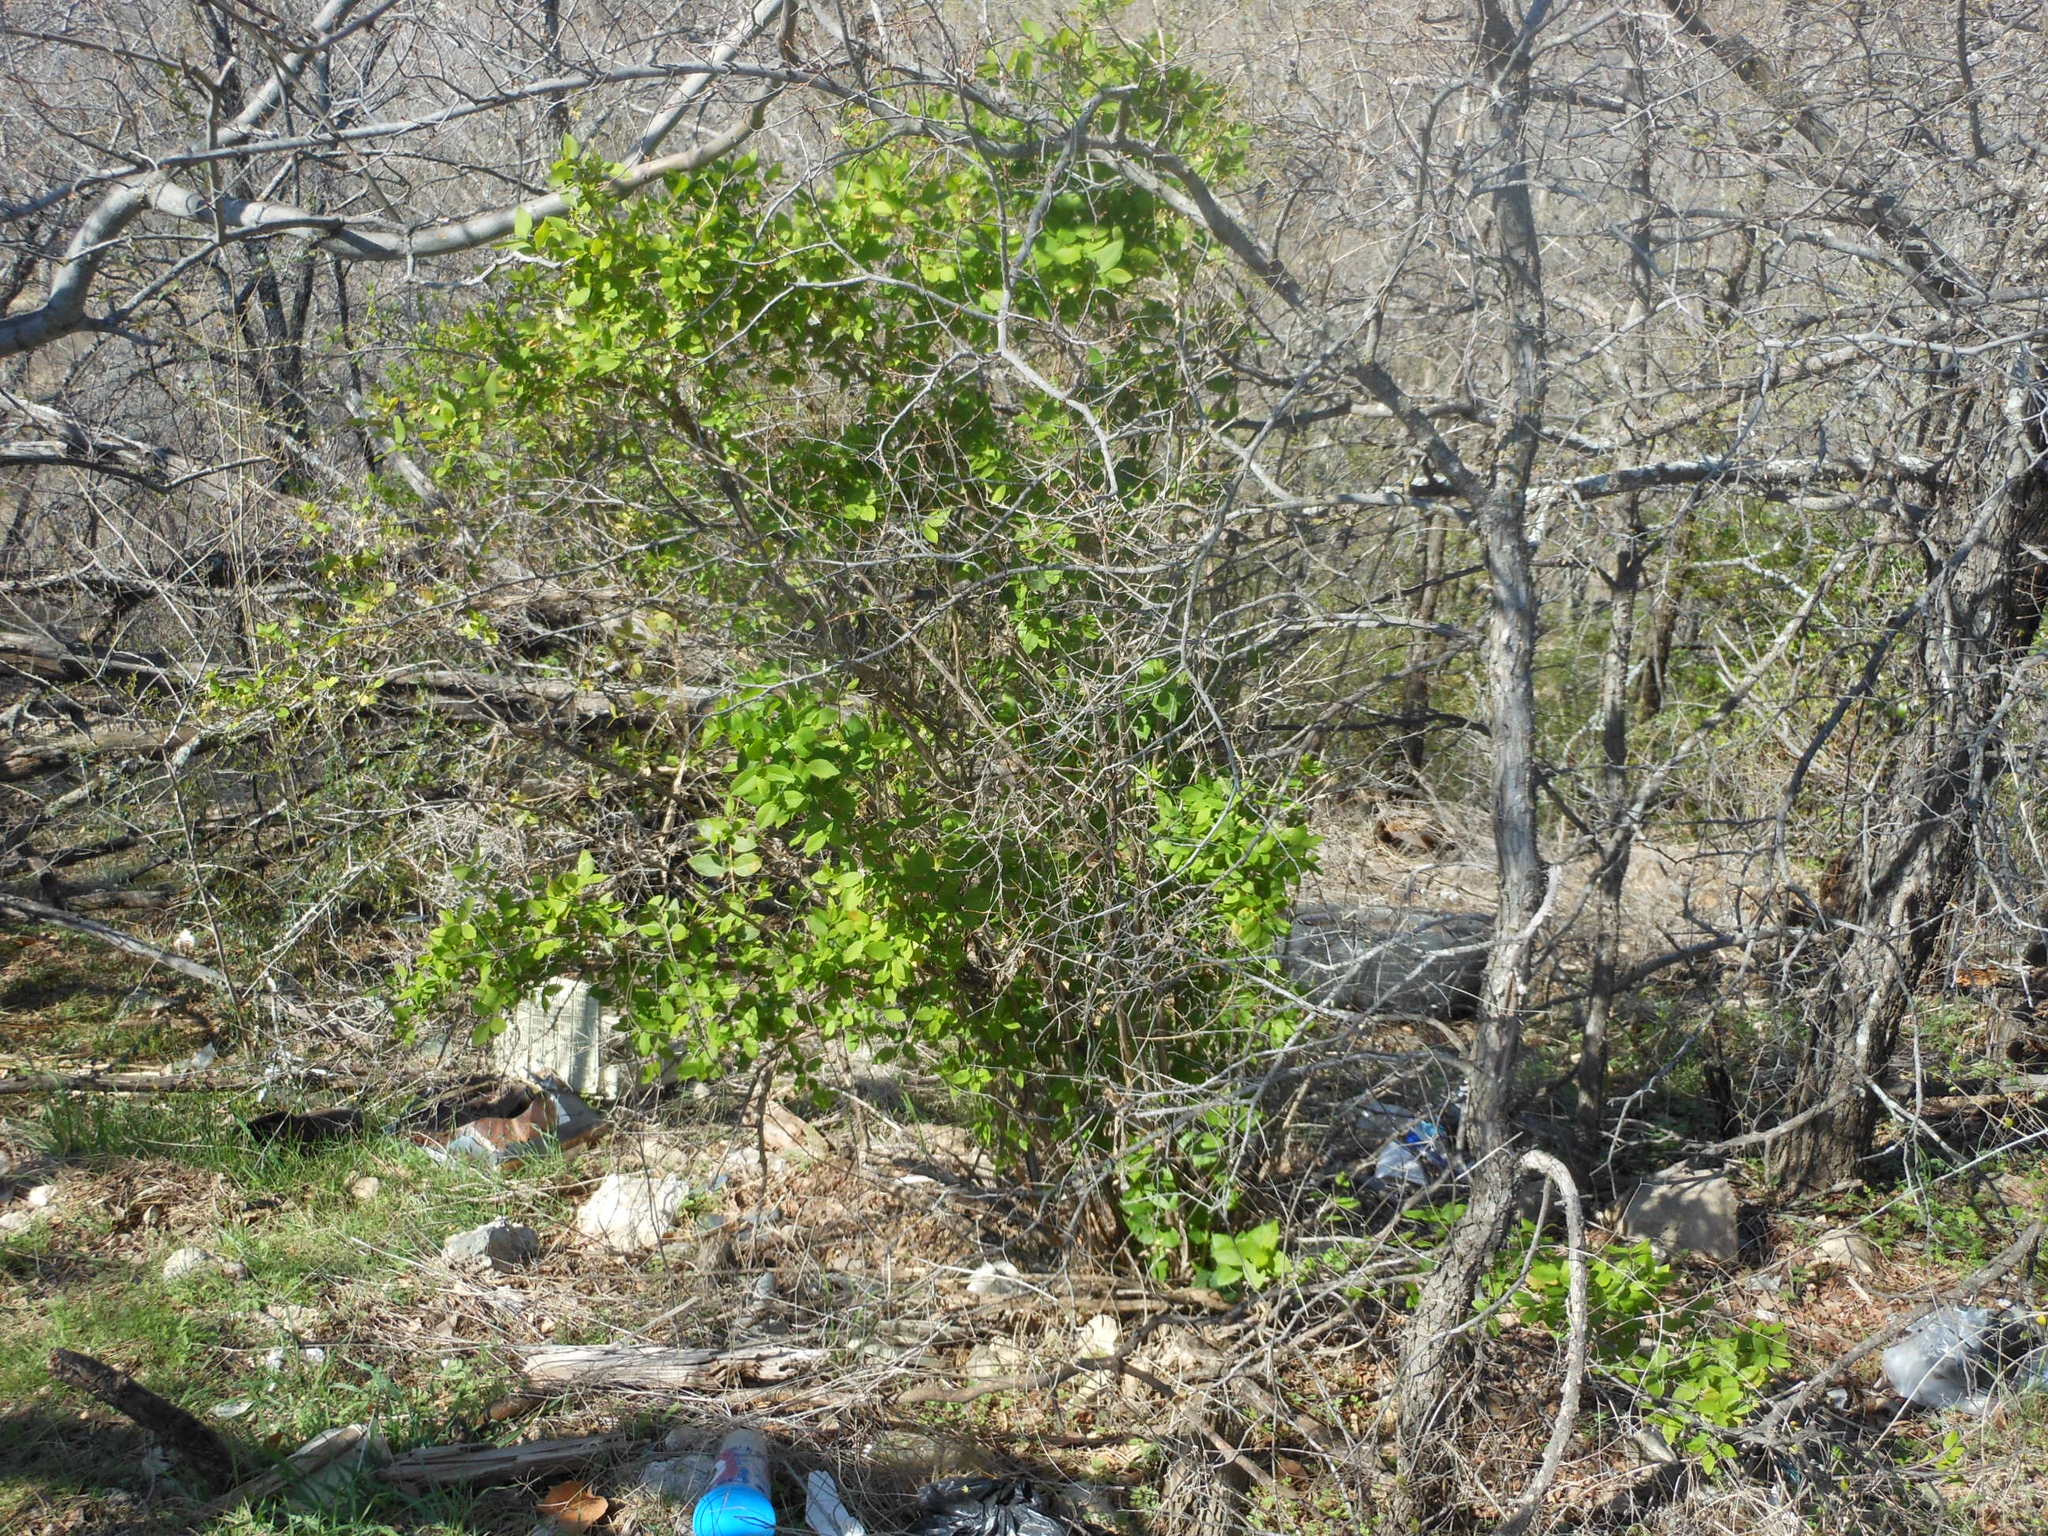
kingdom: Plantae
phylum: Tracheophyta
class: Magnoliopsida
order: Dipsacales
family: Caprifoliaceae
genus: Lonicera
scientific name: Lonicera fragrantissima
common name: Fragrant honeysuckle
